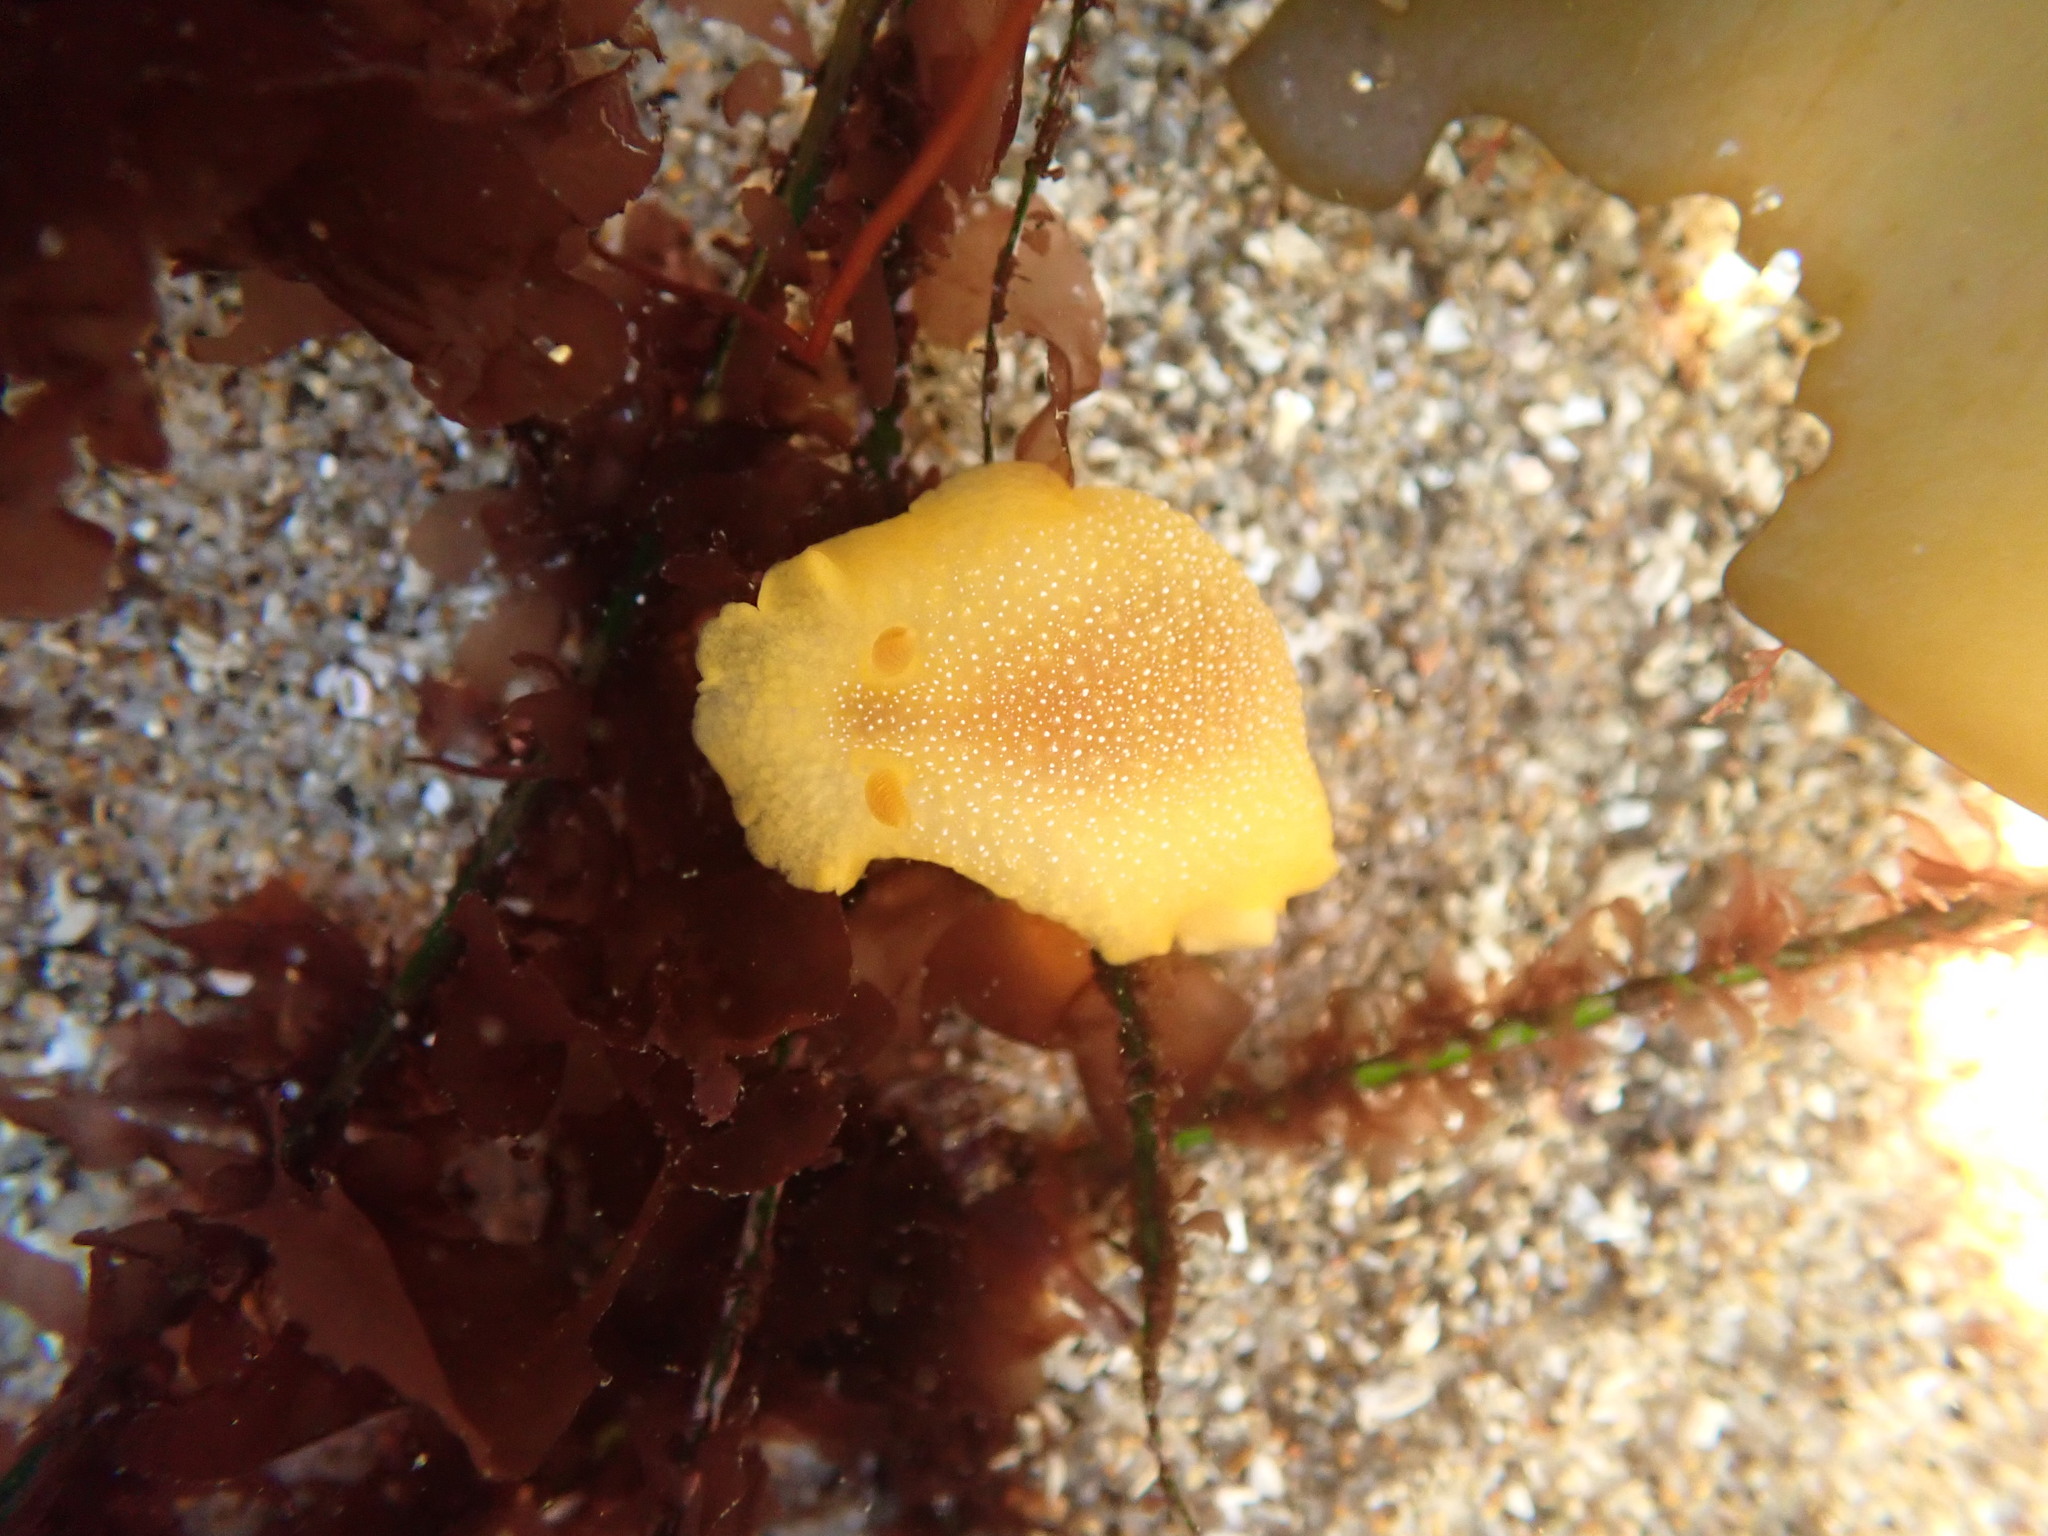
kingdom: Animalia
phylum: Mollusca
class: Gastropoda
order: Nudibranchia
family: Dendrodorididae
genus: Doriopsilla
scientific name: Doriopsilla albopunctata
